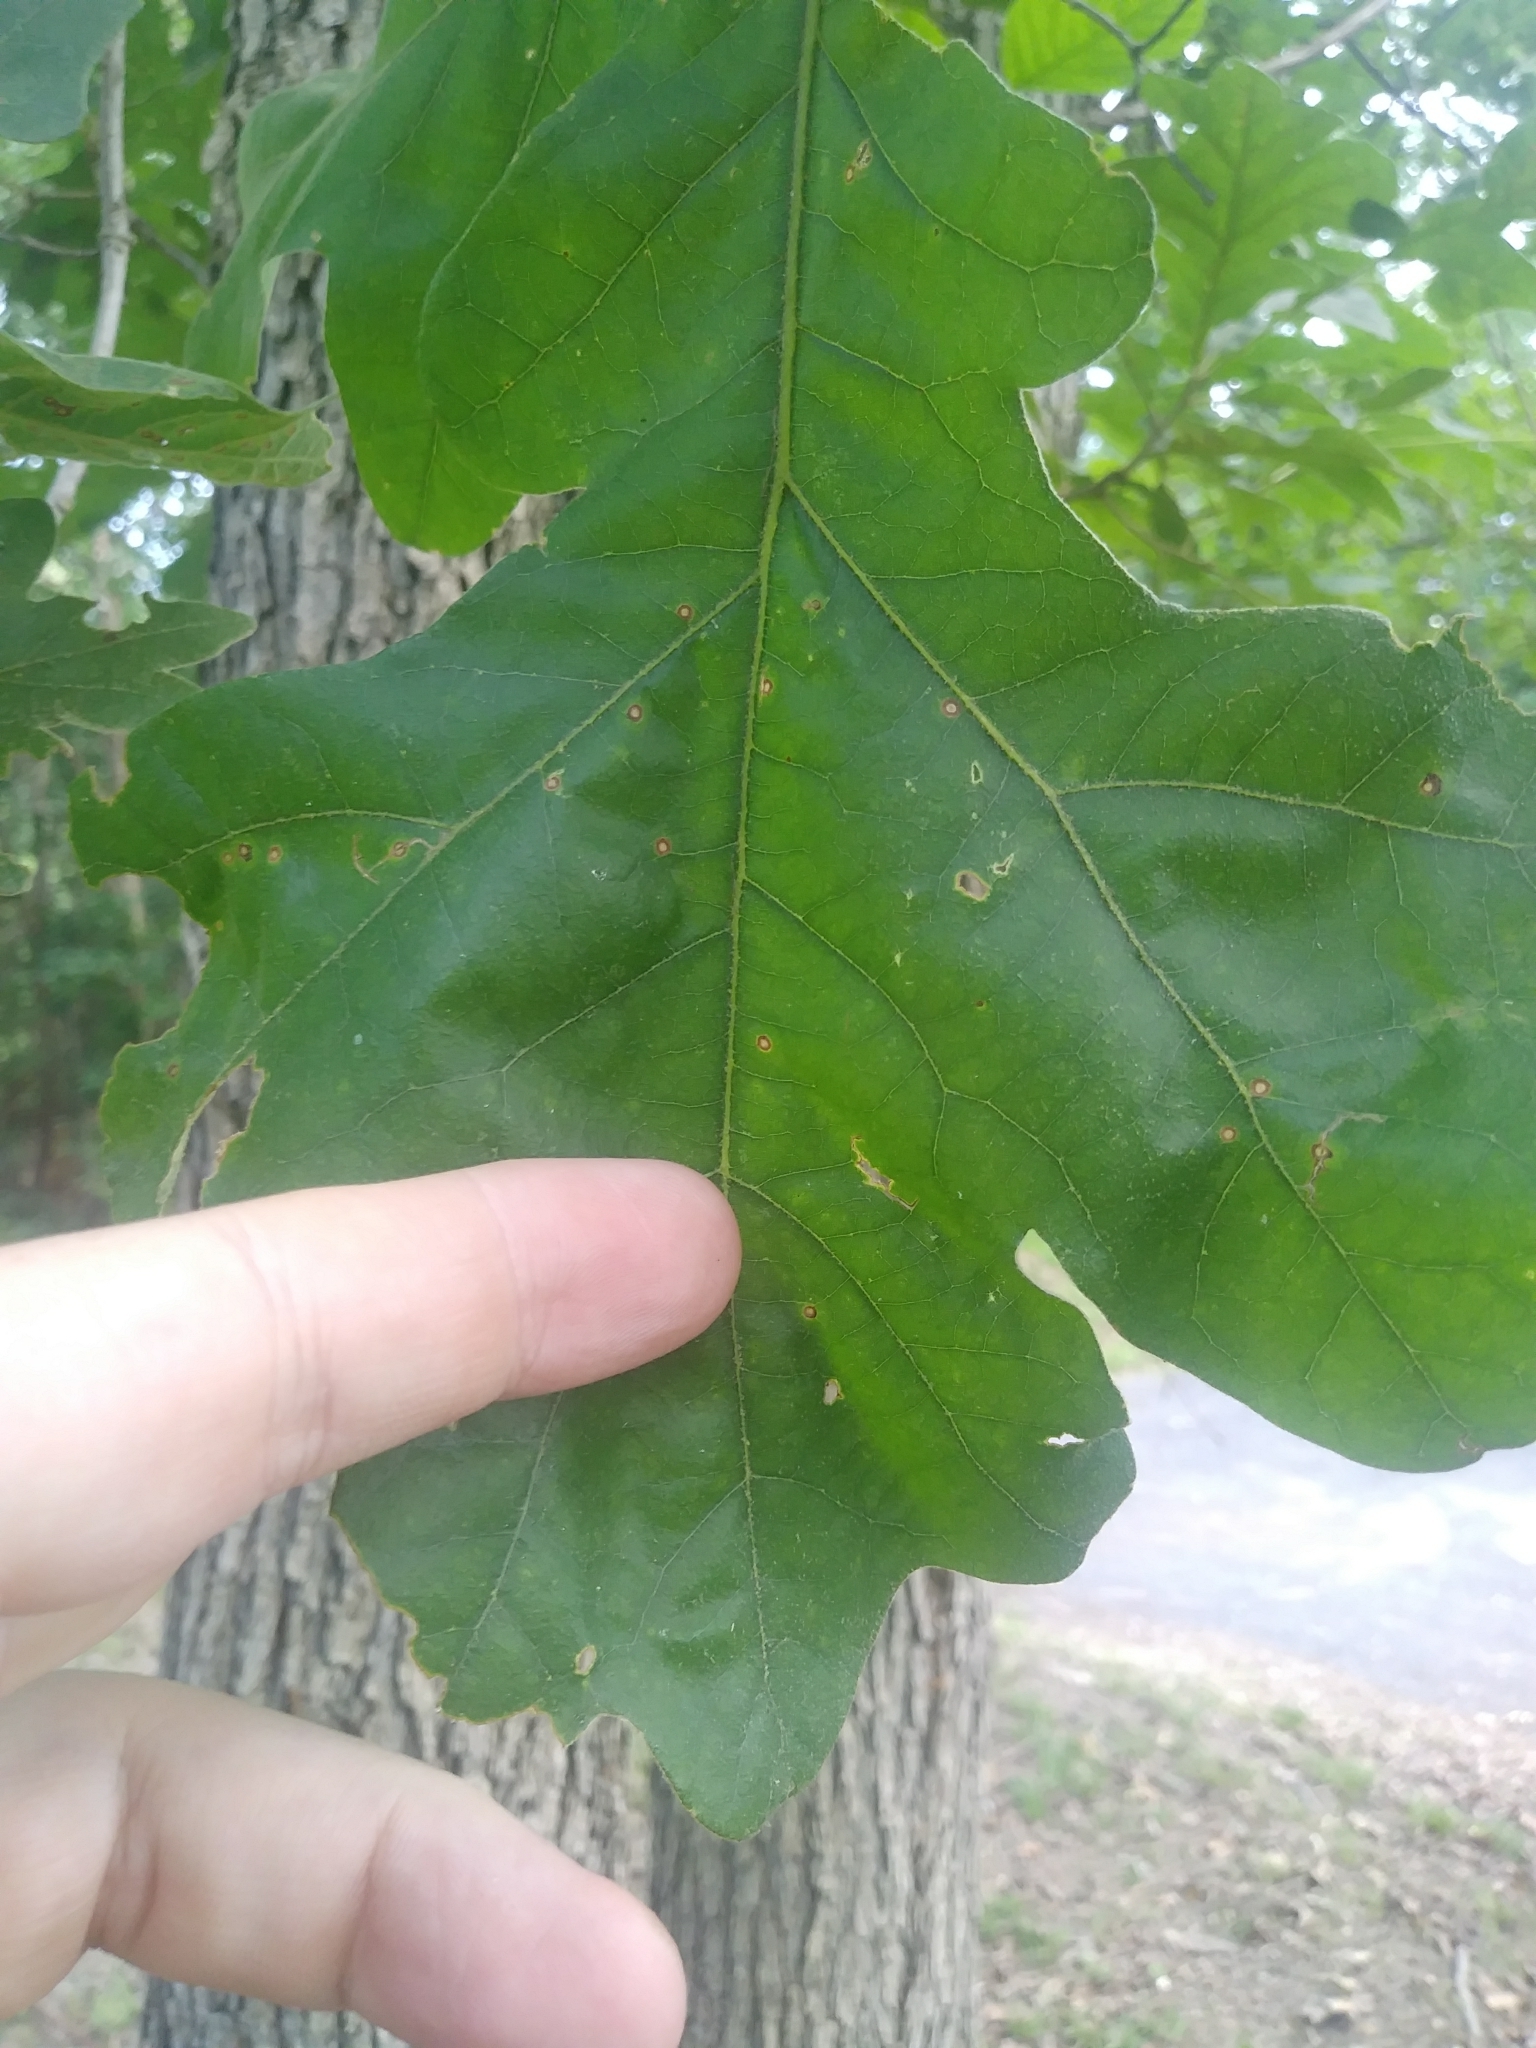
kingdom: Plantae
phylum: Tracheophyta
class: Magnoliopsida
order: Fagales
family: Fagaceae
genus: Quercus
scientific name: Quercus stellata
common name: Post oak
